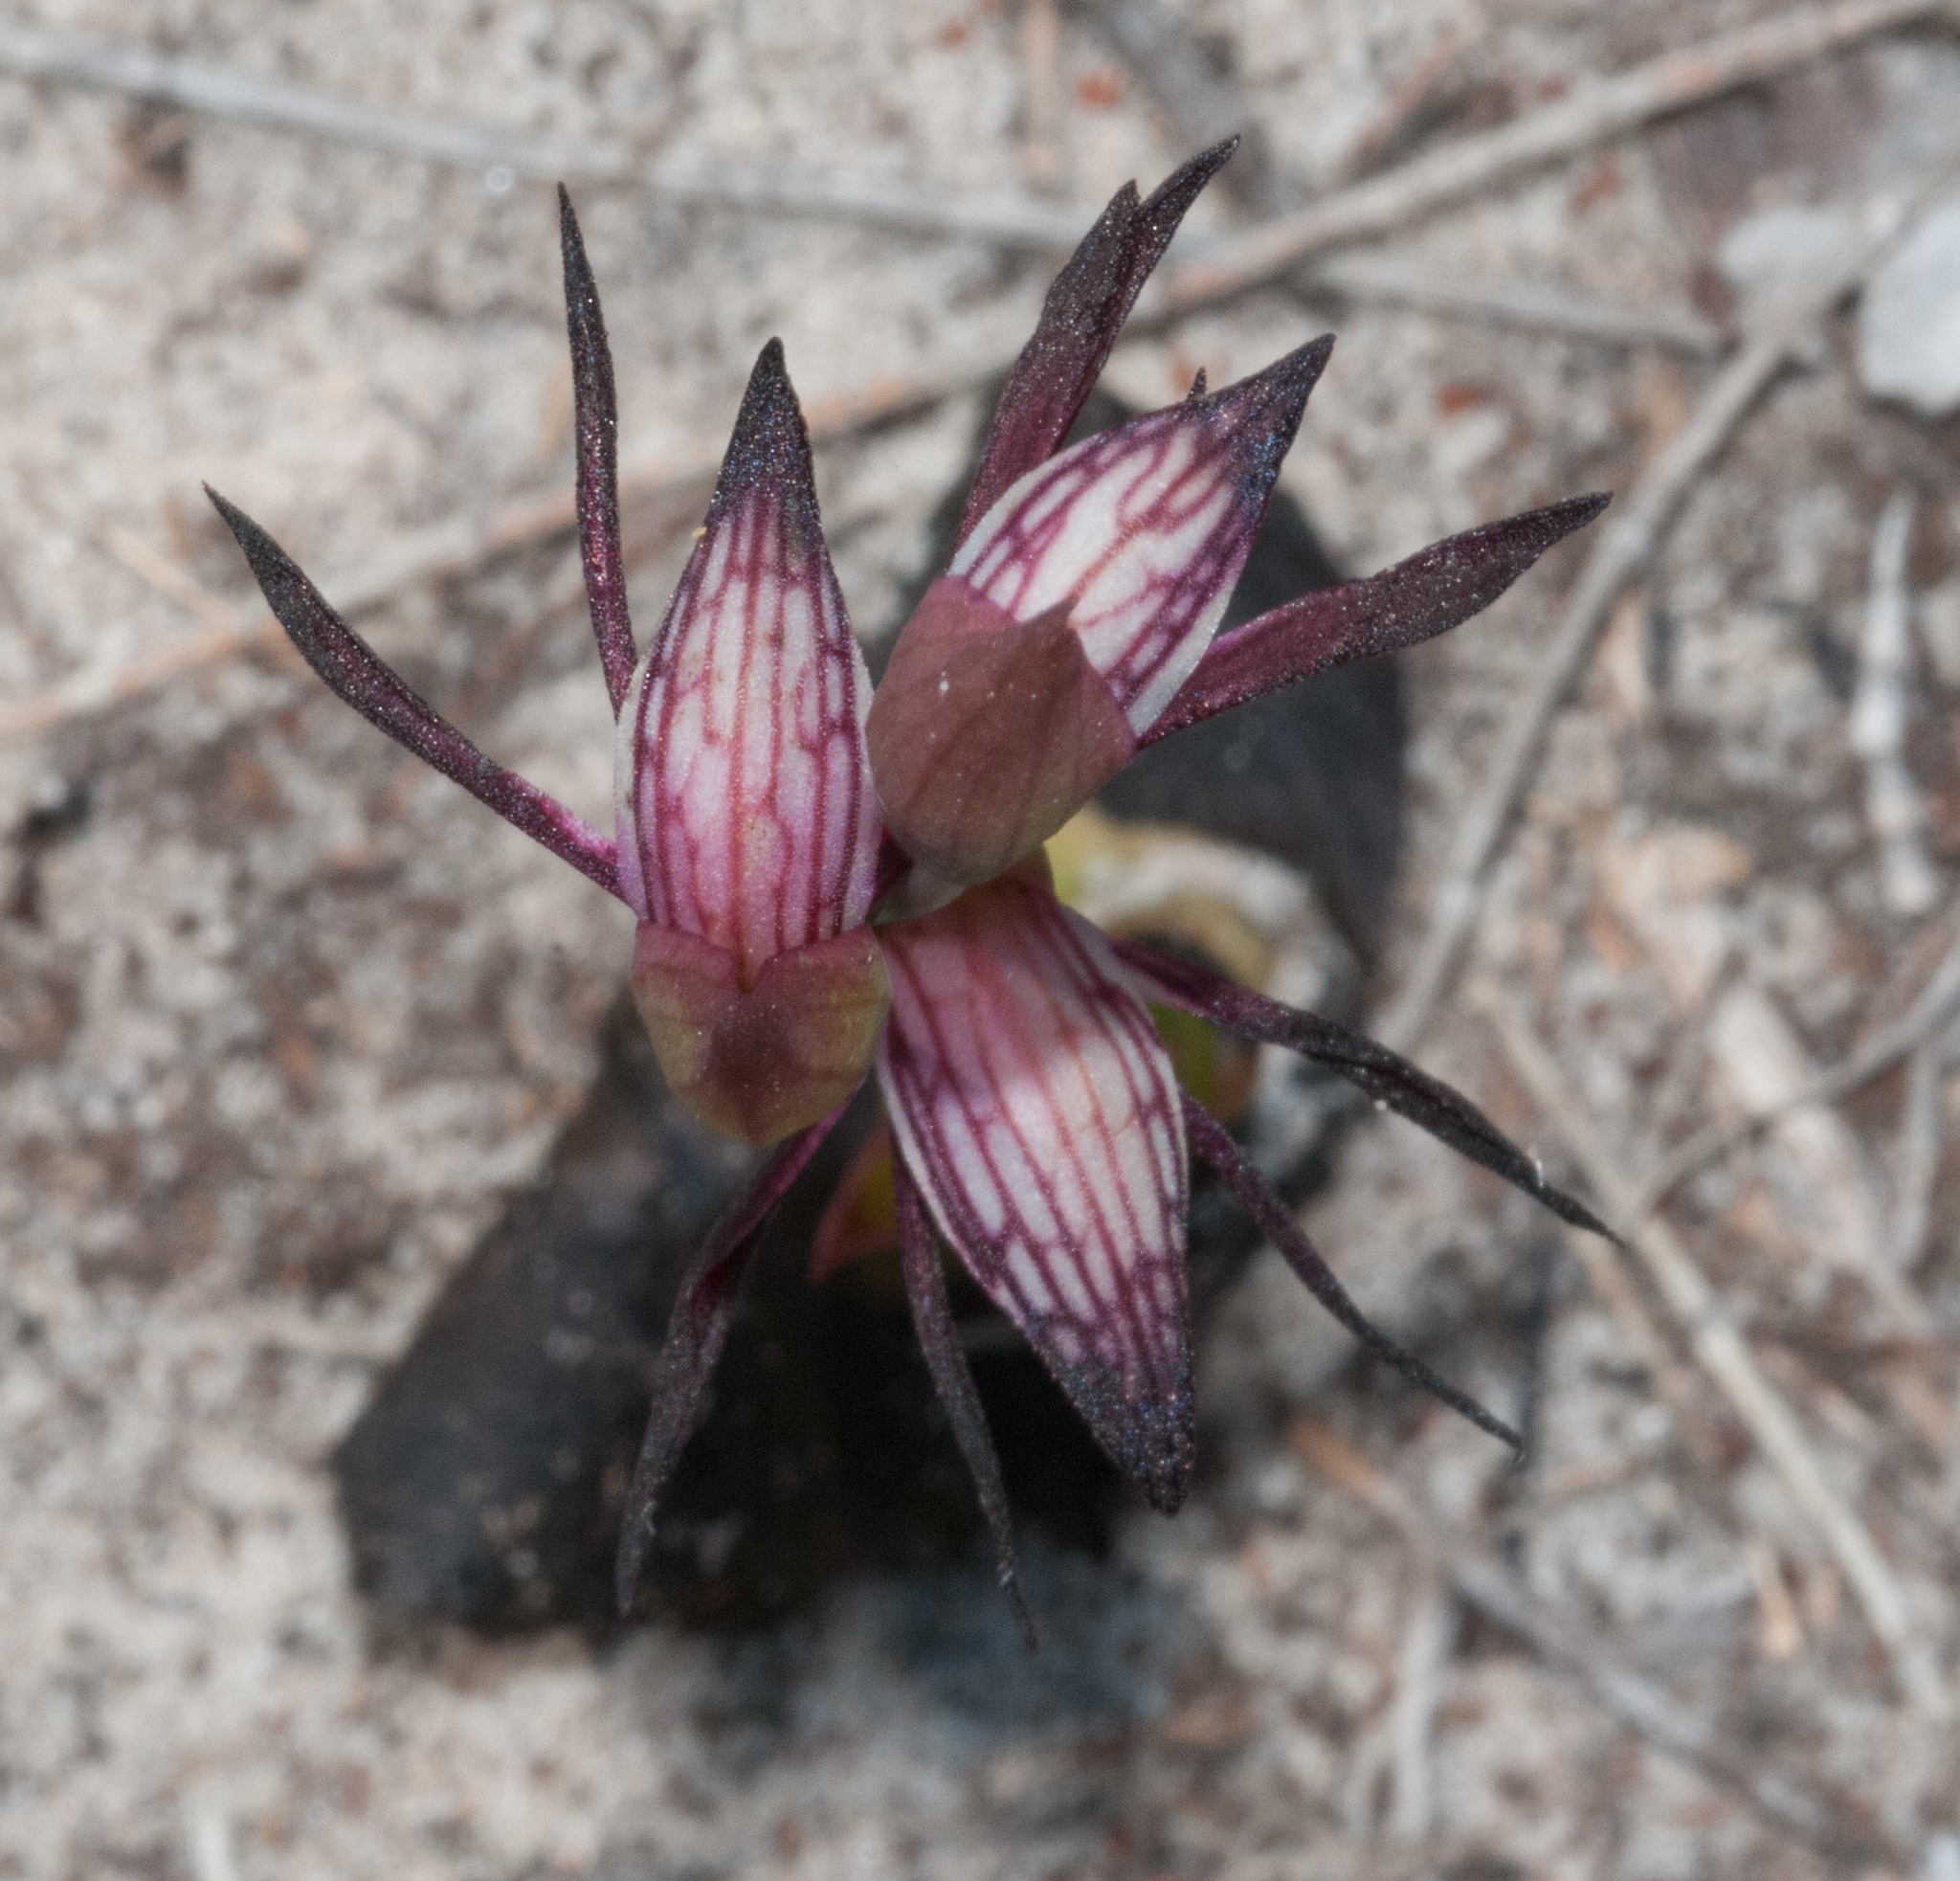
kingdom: Plantae
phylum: Tracheophyta
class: Liliopsida
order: Asparagales
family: Orchidaceae
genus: Pyrorchis
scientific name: Pyrorchis nigricans
